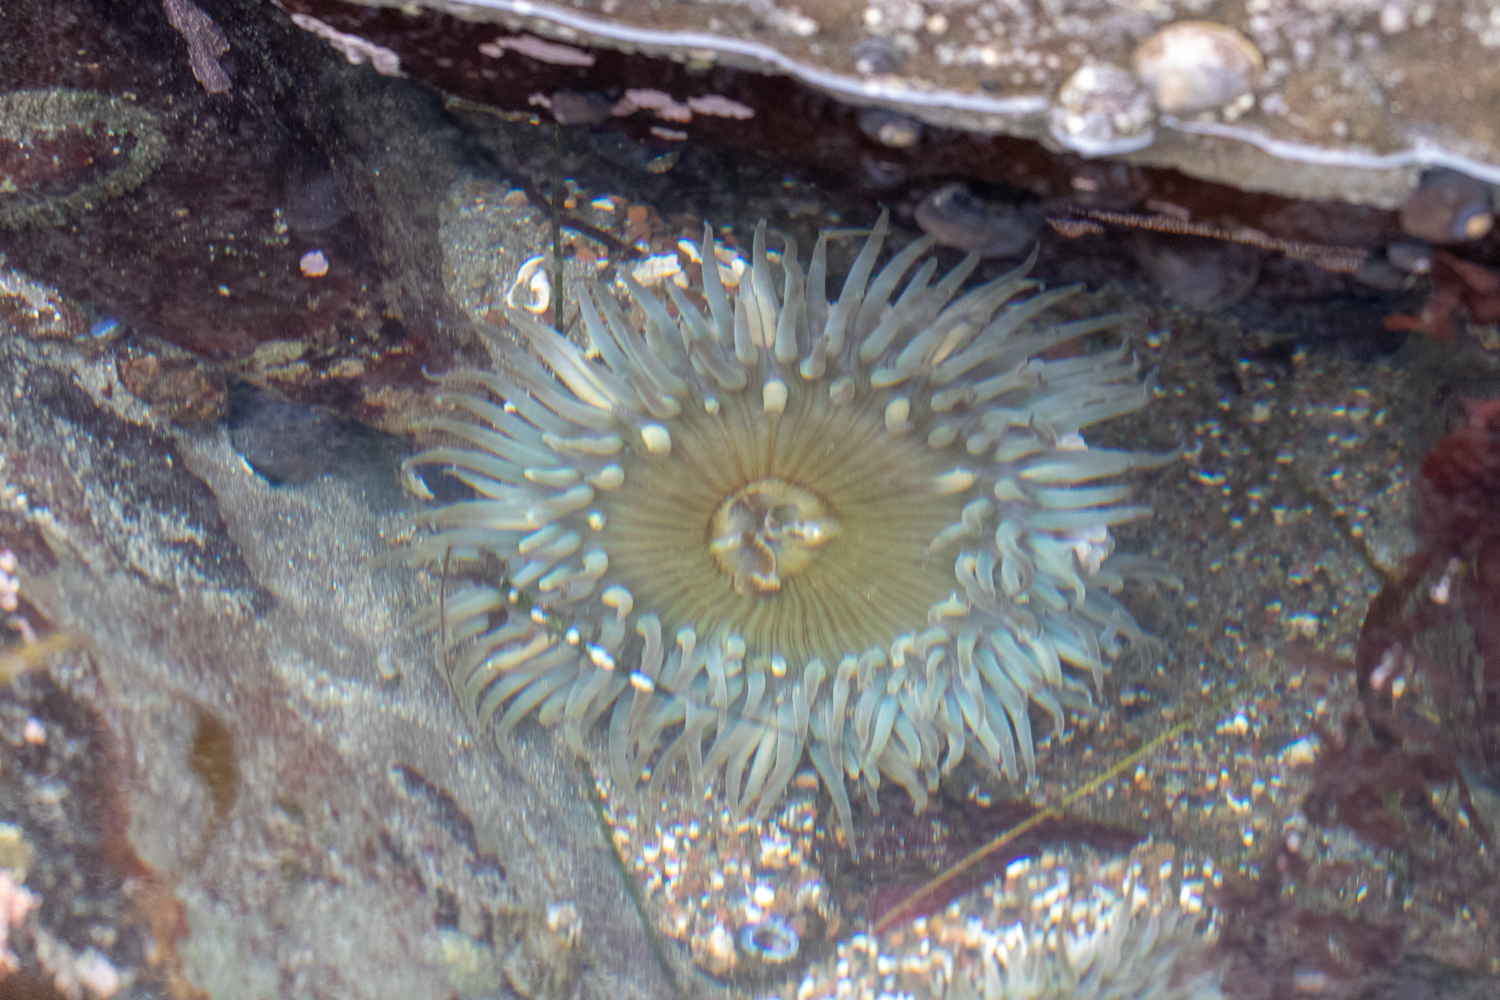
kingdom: Animalia
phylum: Cnidaria
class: Anthozoa
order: Actiniaria
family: Actiniidae
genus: Anthopleura
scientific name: Anthopleura sola
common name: Sun anemone
